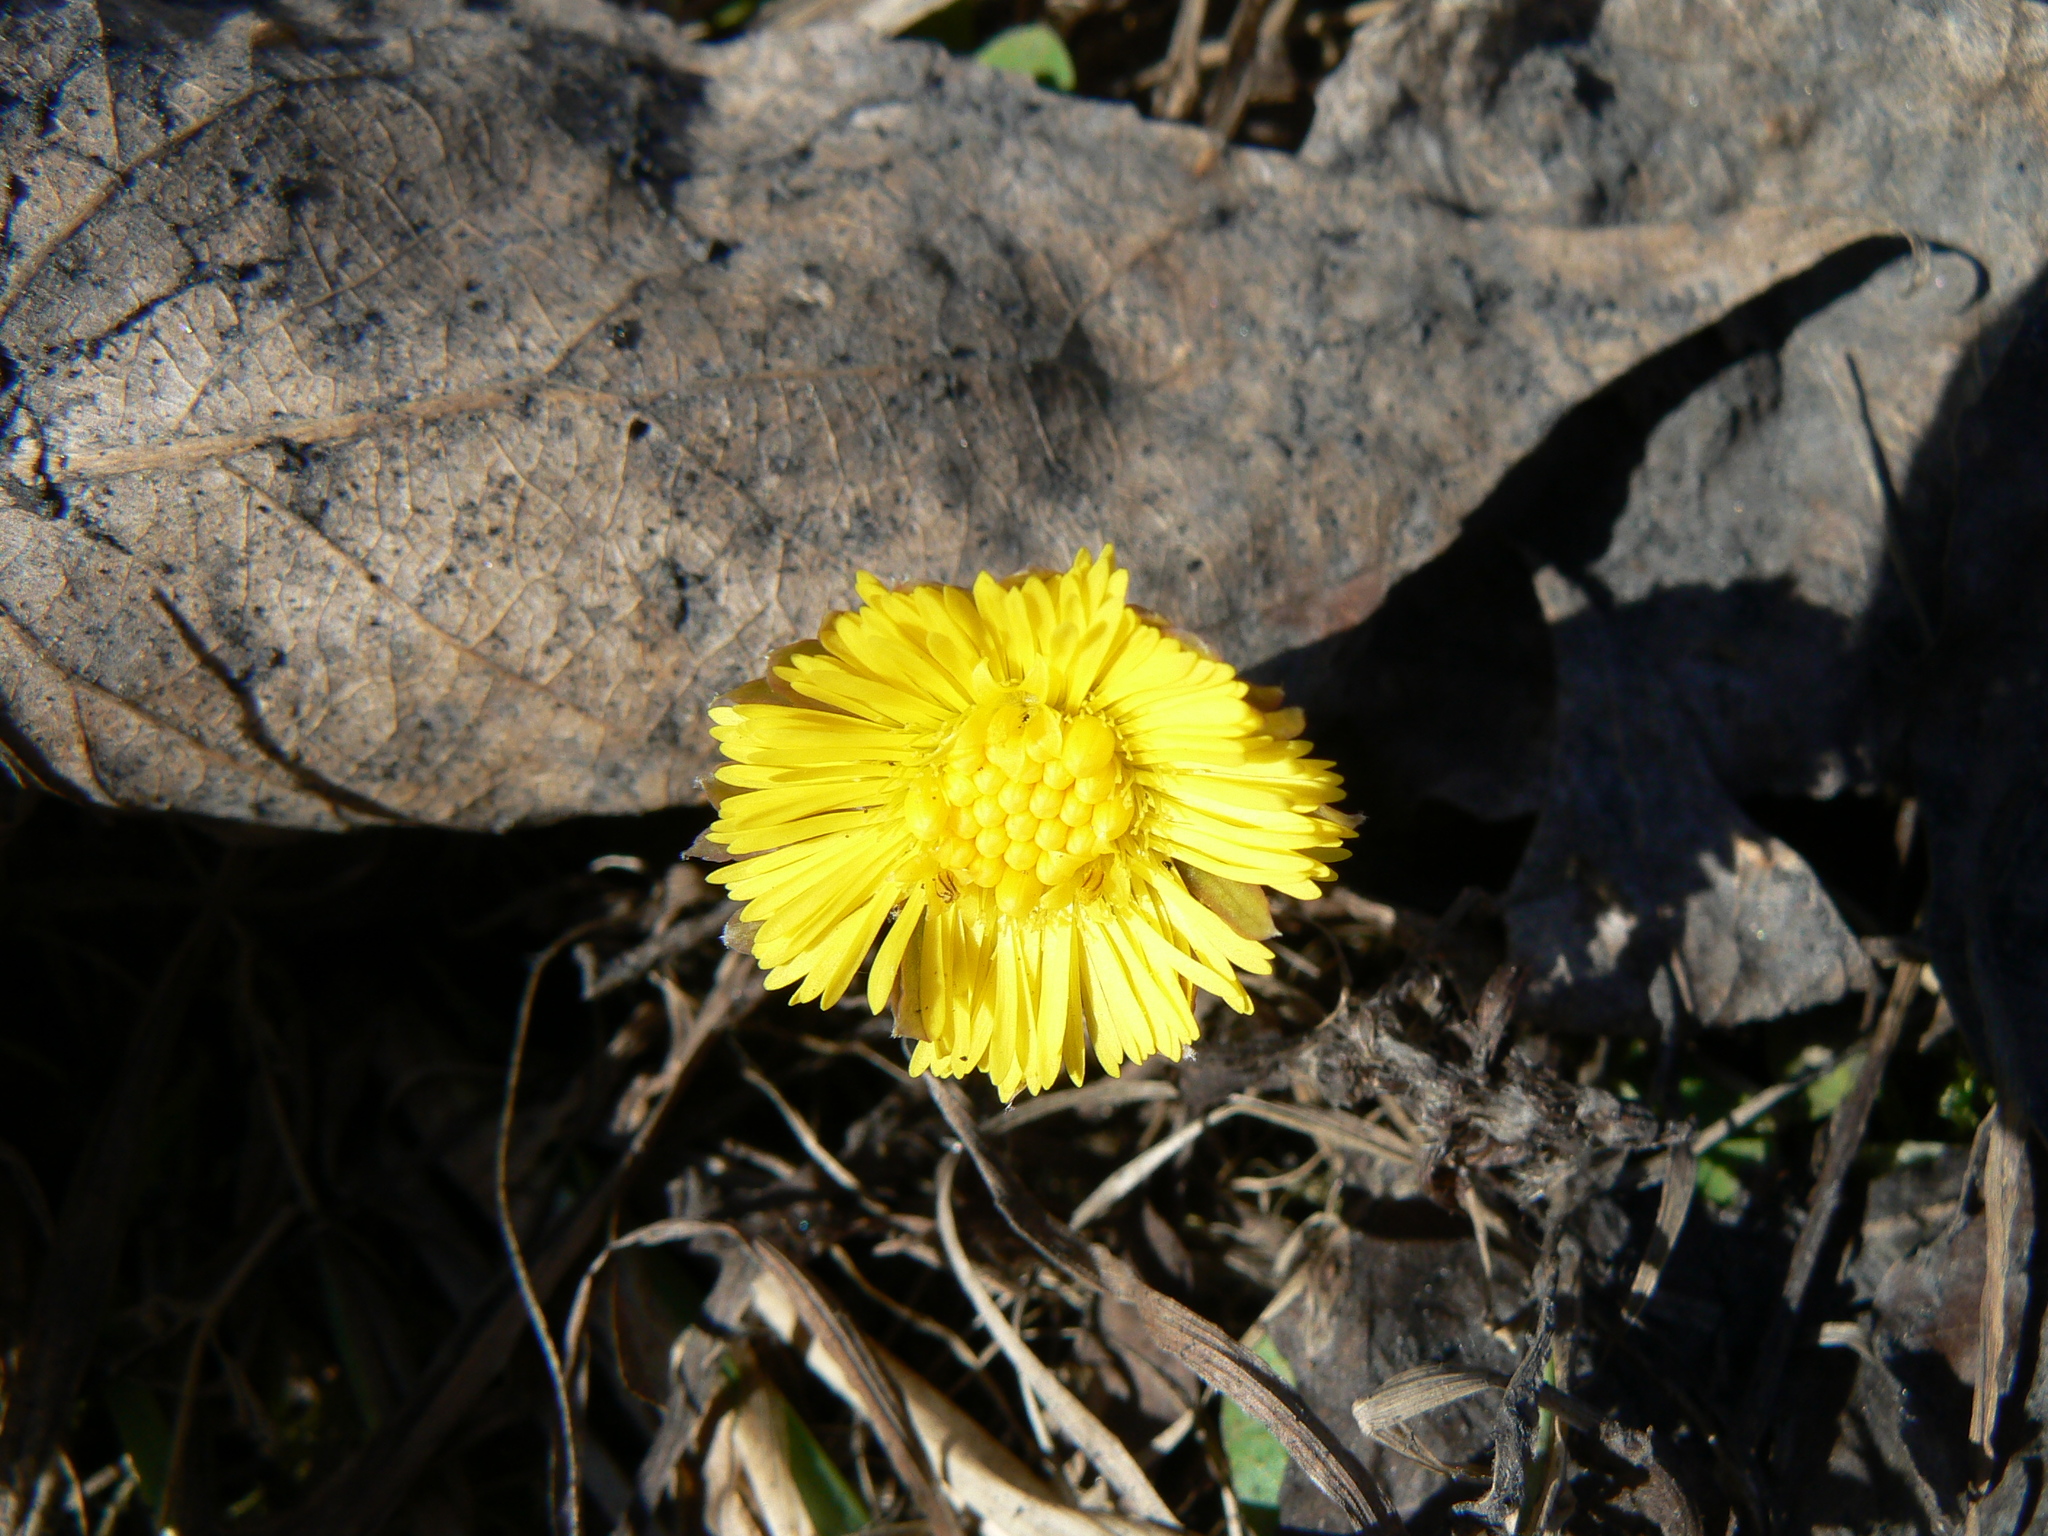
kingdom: Plantae
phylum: Tracheophyta
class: Magnoliopsida
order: Asterales
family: Asteraceae
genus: Tussilago
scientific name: Tussilago farfara
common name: Coltsfoot
